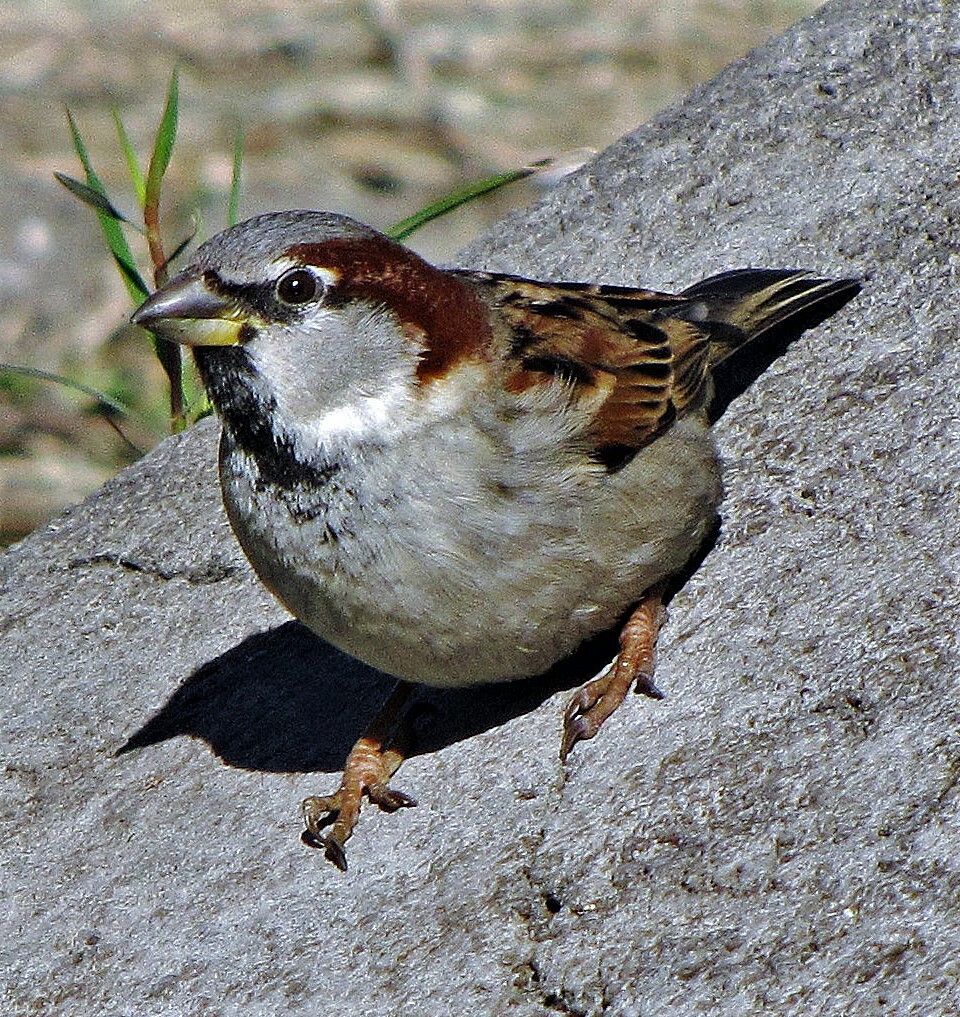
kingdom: Animalia
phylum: Chordata
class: Aves
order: Passeriformes
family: Passeridae
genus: Passer
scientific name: Passer domesticus
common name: House sparrow
